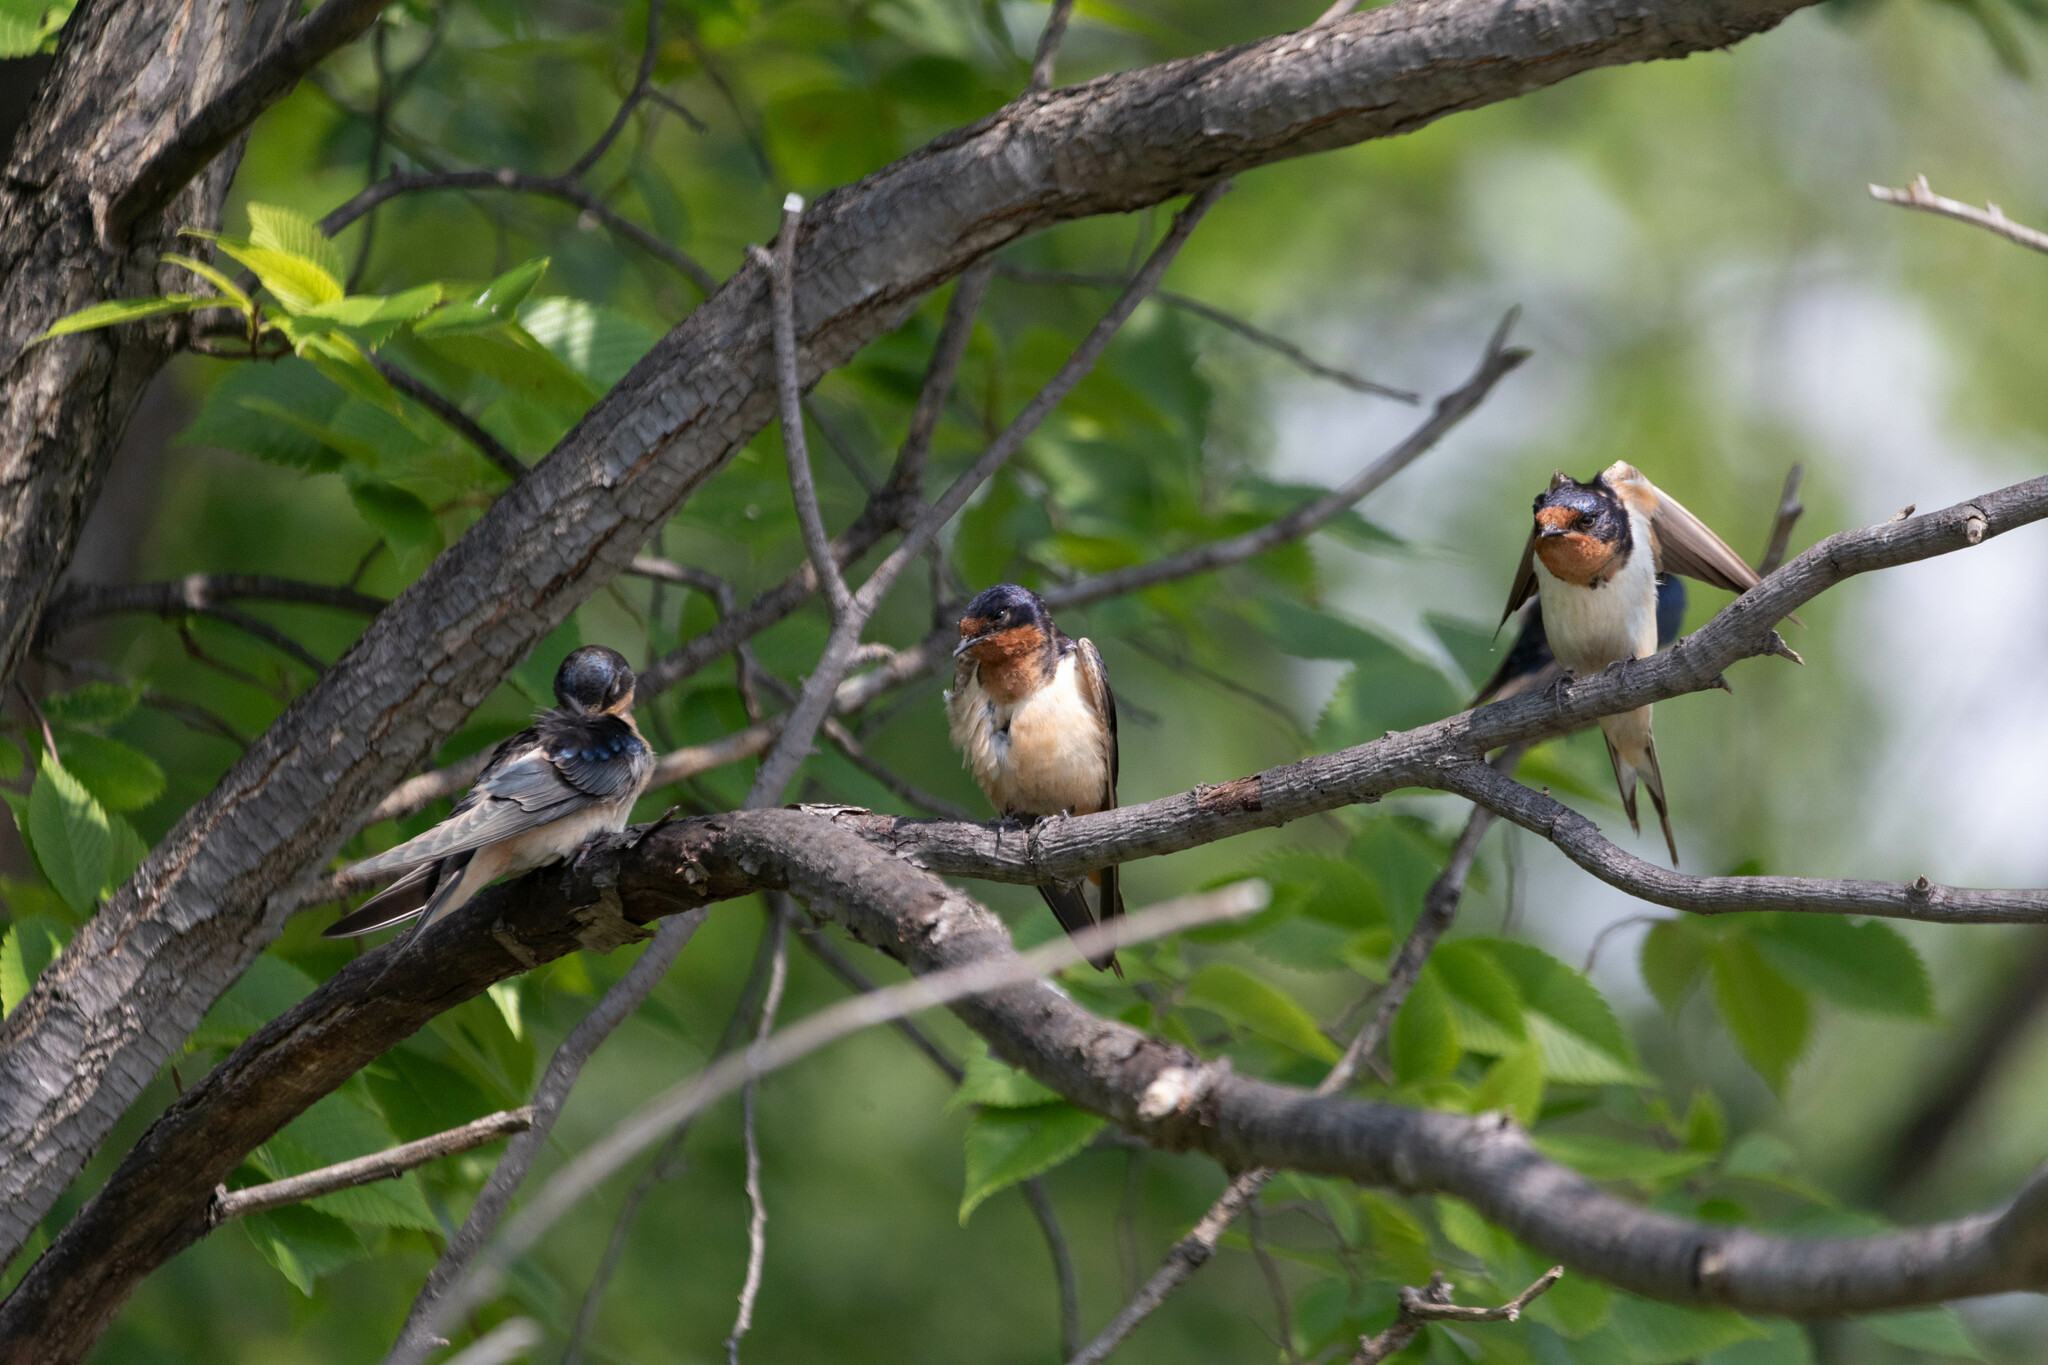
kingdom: Animalia
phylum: Chordata
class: Aves
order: Passeriformes
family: Hirundinidae
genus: Hirundo
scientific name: Hirundo rustica
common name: Barn swallow
